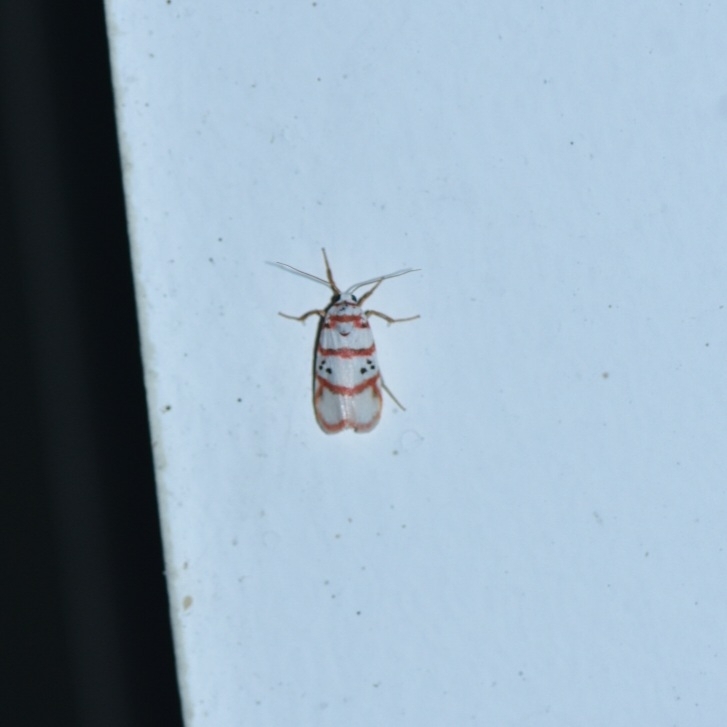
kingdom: Animalia
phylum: Arthropoda
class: Insecta
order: Lepidoptera
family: Erebidae
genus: Cyana
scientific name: Cyana peregrina
